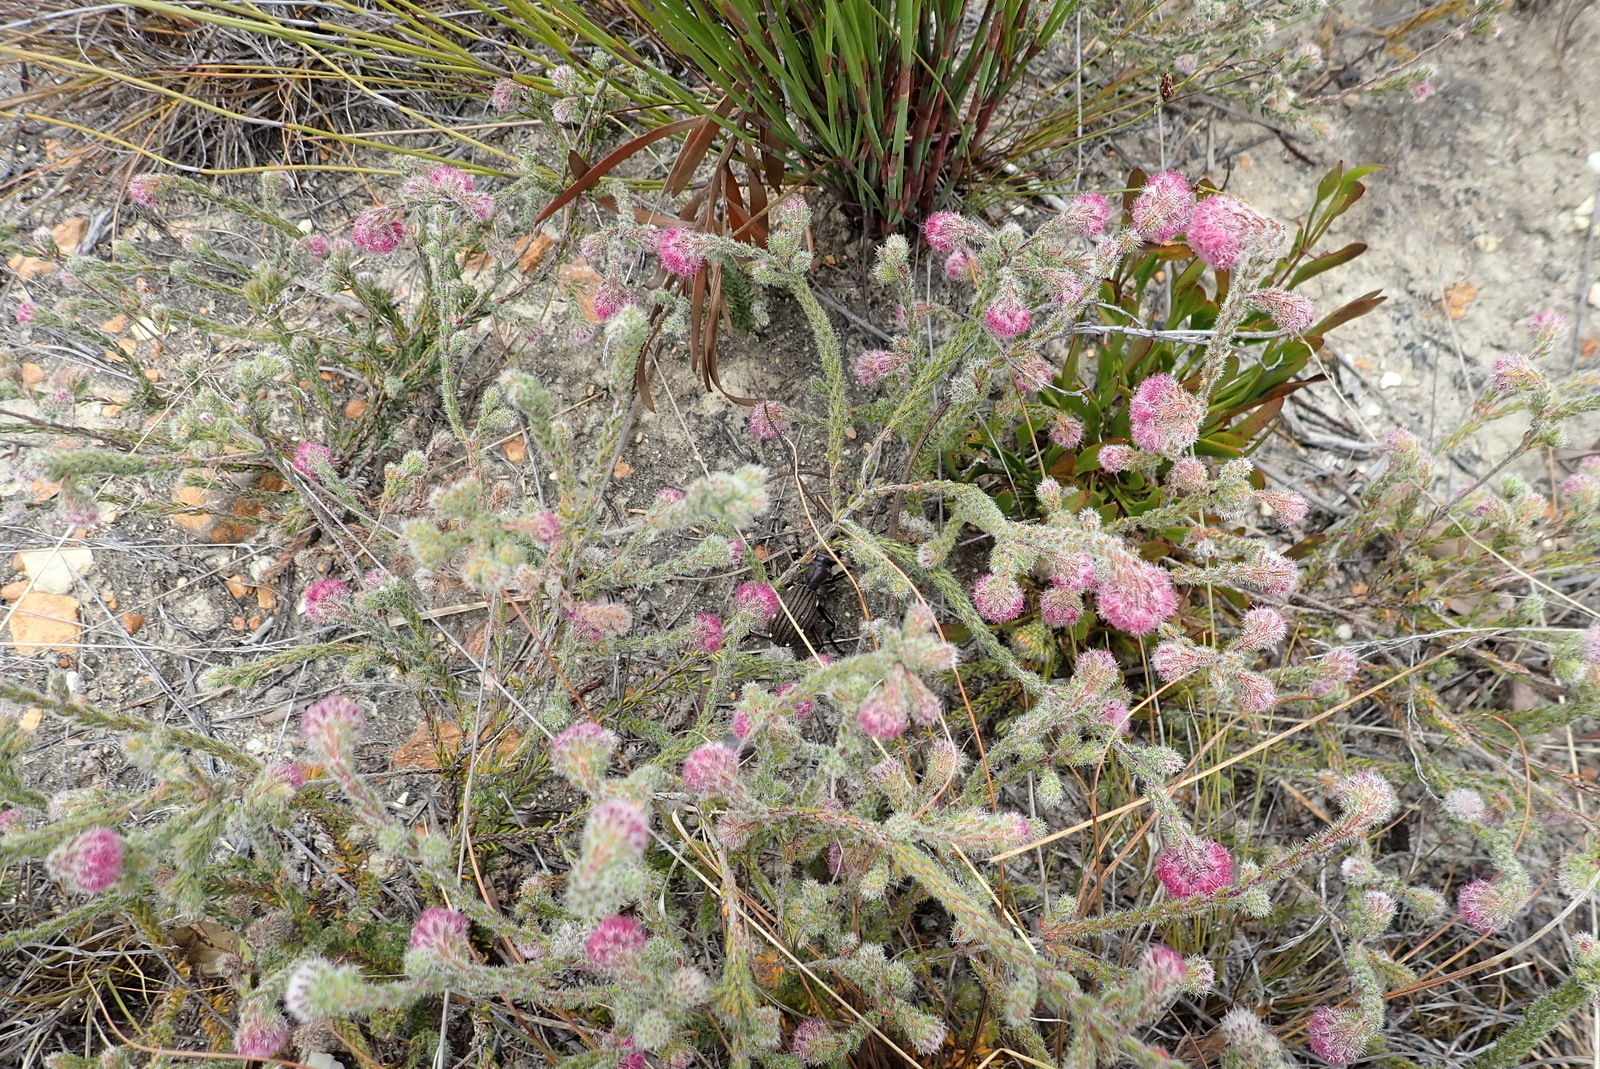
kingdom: Plantae
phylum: Tracheophyta
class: Magnoliopsida
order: Ericales
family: Ericaceae
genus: Erica
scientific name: Erica solandra
